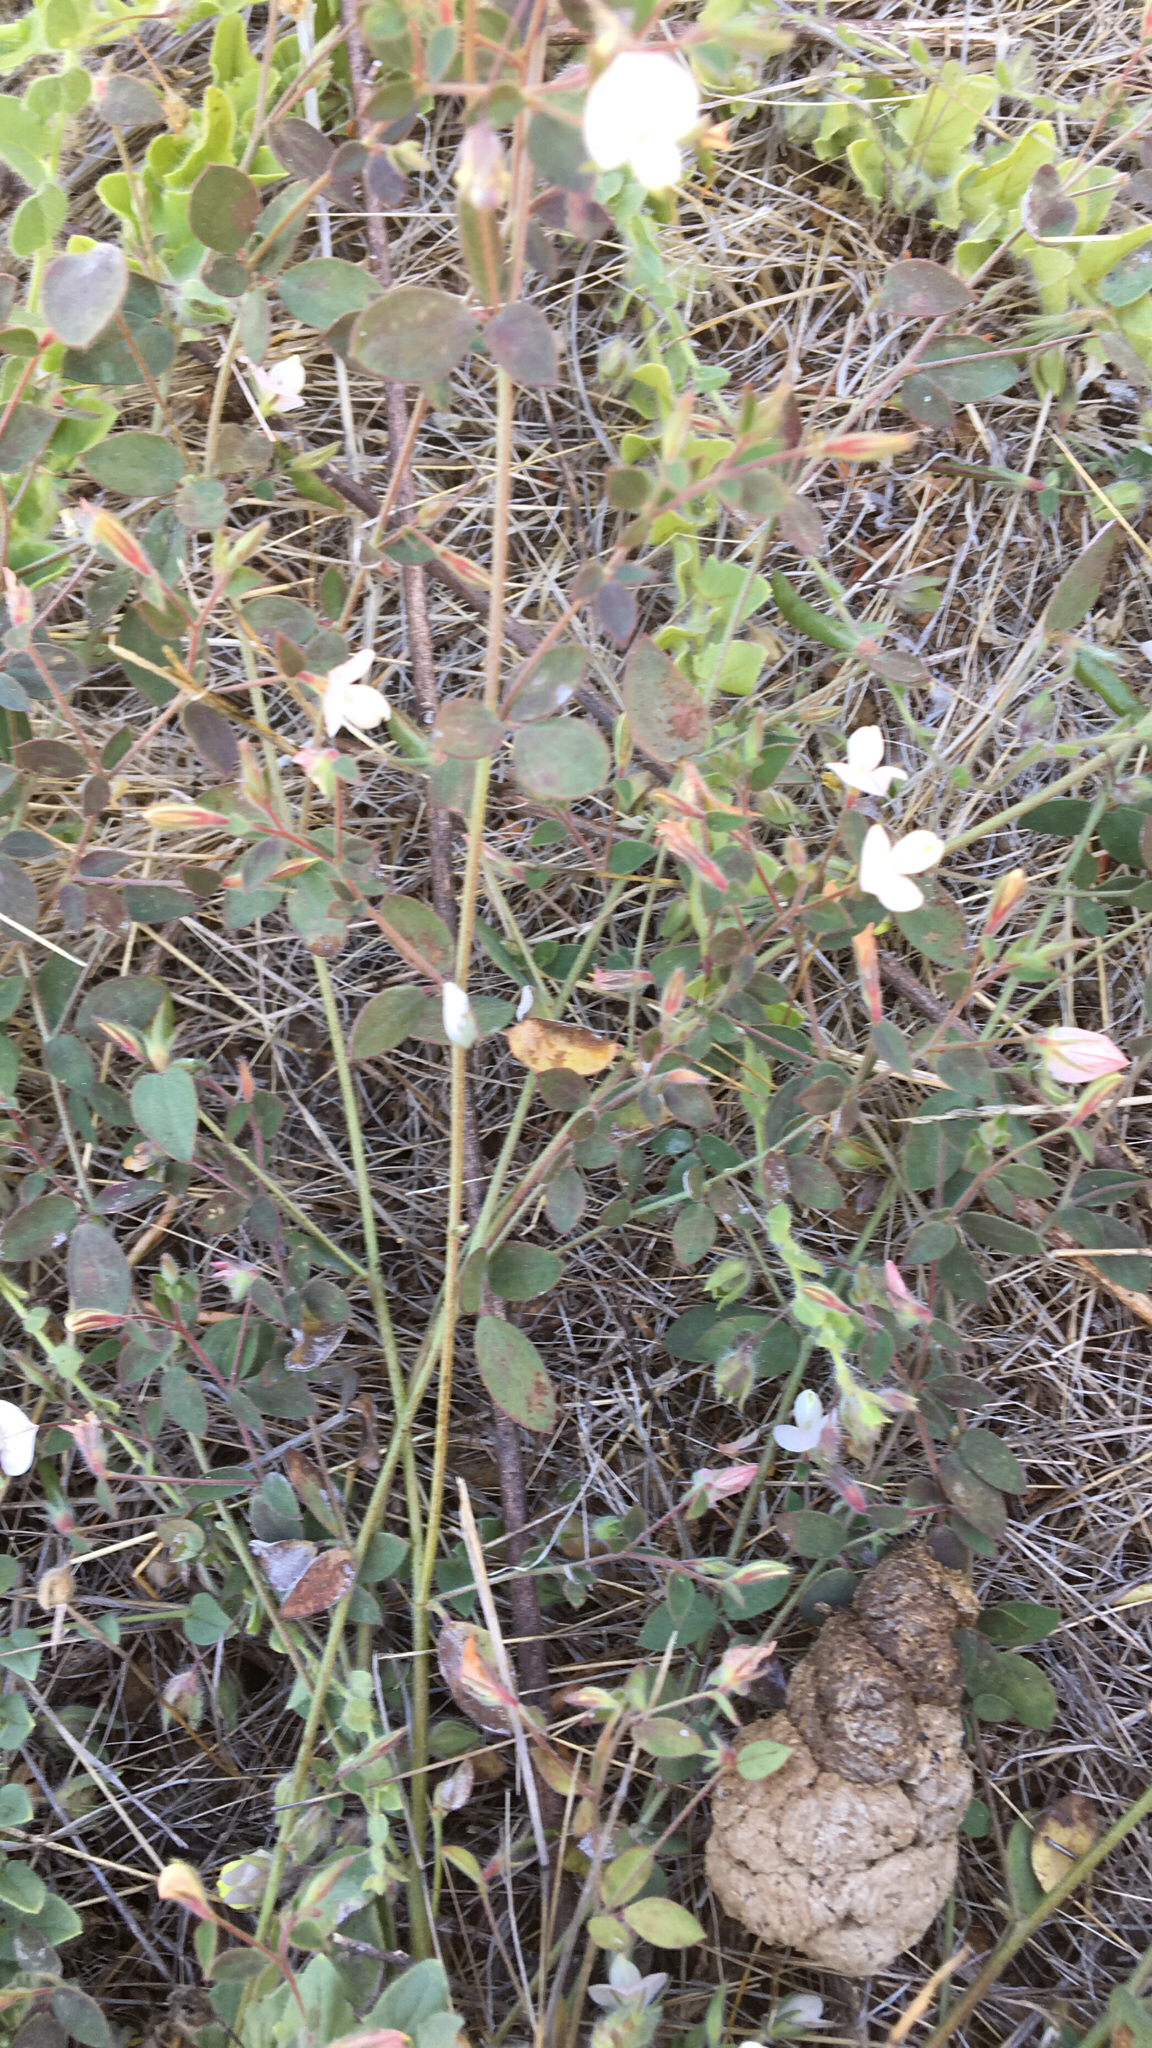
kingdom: Plantae
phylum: Tracheophyta
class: Magnoliopsida
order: Fabales
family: Fabaceae
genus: Acmispon
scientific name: Acmispon americanus
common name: American bird's-foot trefoil
